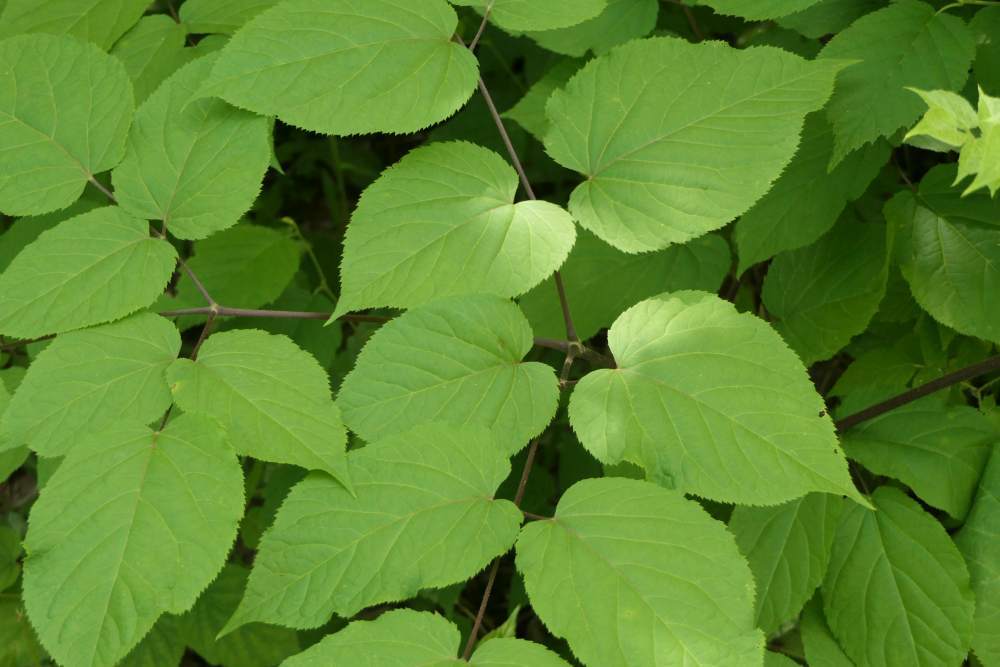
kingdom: Plantae
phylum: Tracheophyta
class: Magnoliopsida
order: Apiales
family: Araliaceae
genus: Aralia
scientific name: Aralia racemosa
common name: American-spikenard
